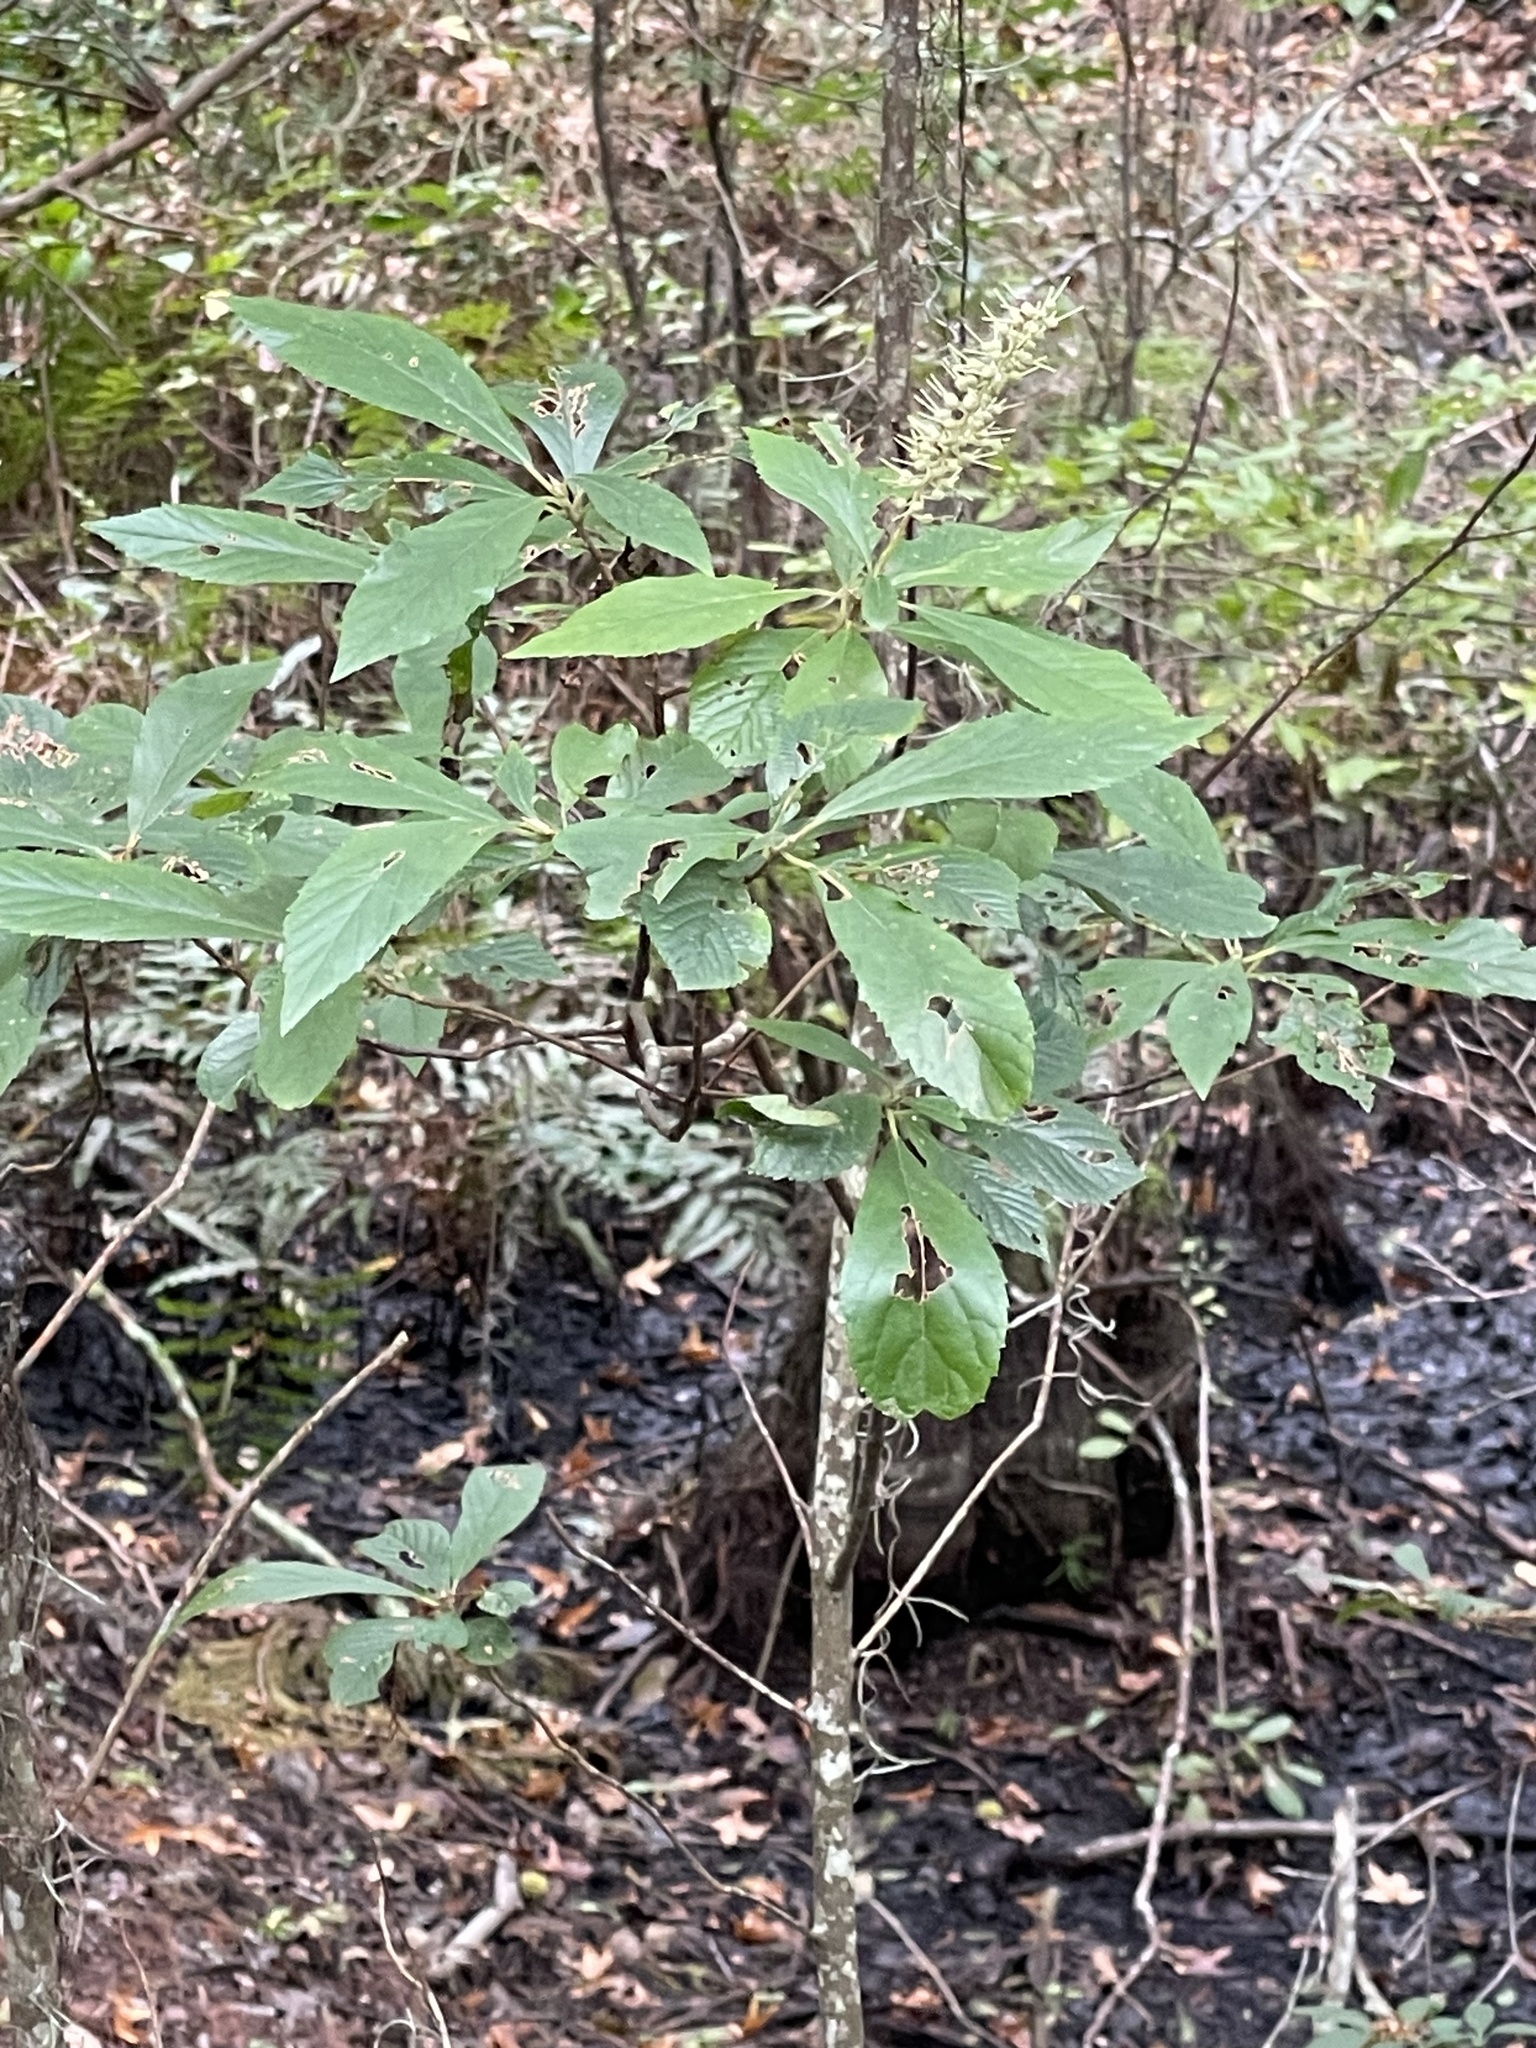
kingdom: Plantae
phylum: Tracheophyta
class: Magnoliopsida
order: Ericales
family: Clethraceae
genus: Clethra
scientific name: Clethra alnifolia
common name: Sweet pepperbush
